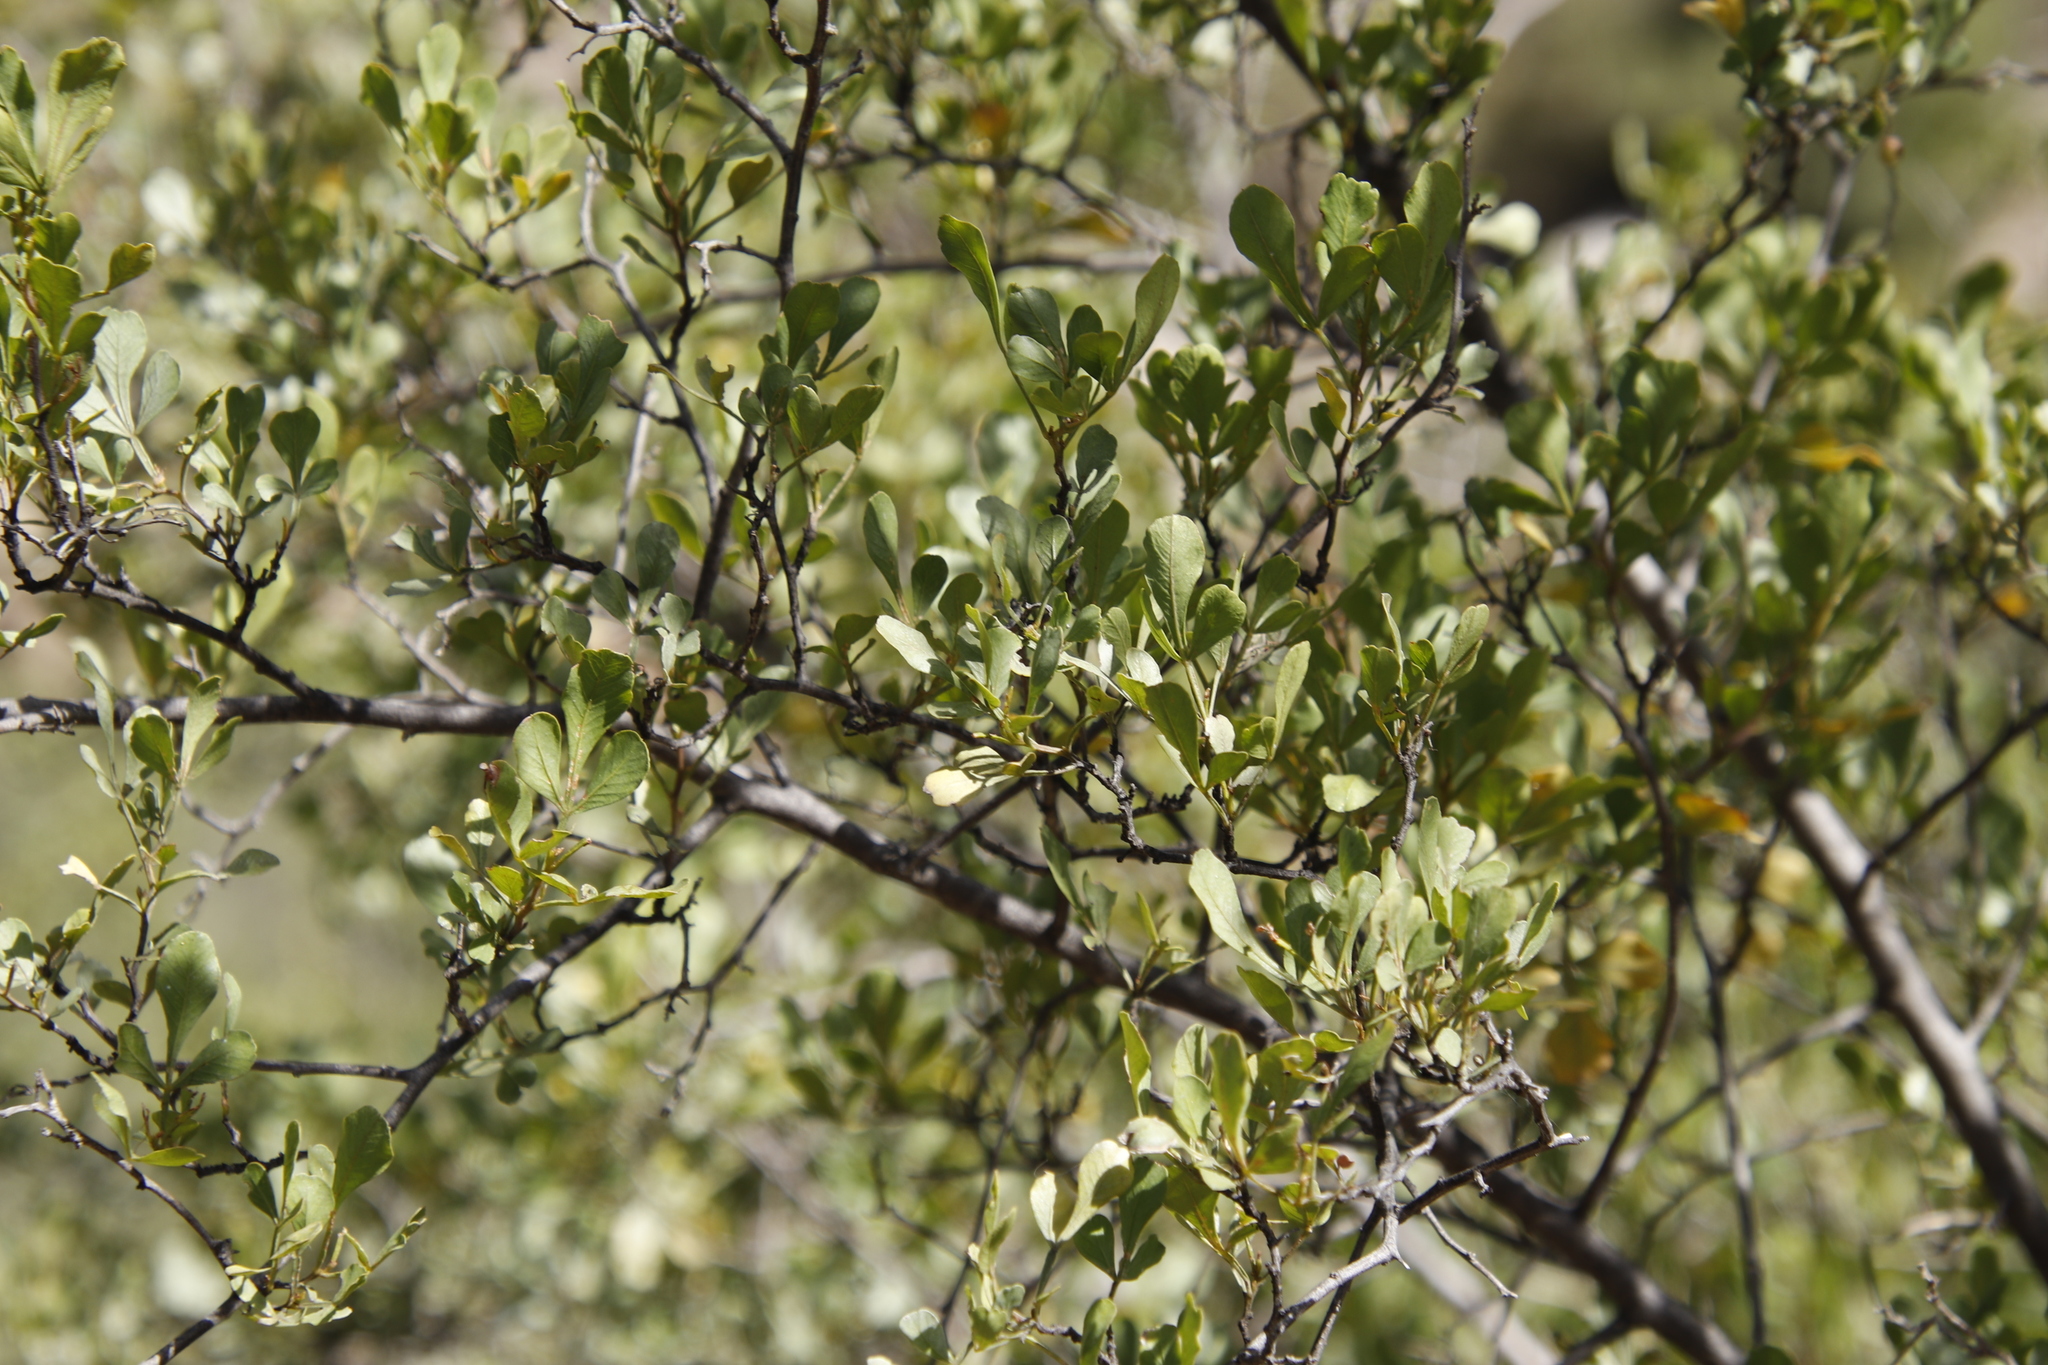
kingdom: Plantae
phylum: Tracheophyta
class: Magnoliopsida
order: Sapindales
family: Anacardiaceae
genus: Searsia
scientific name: Searsia undulata
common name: Namaqua kunibush
